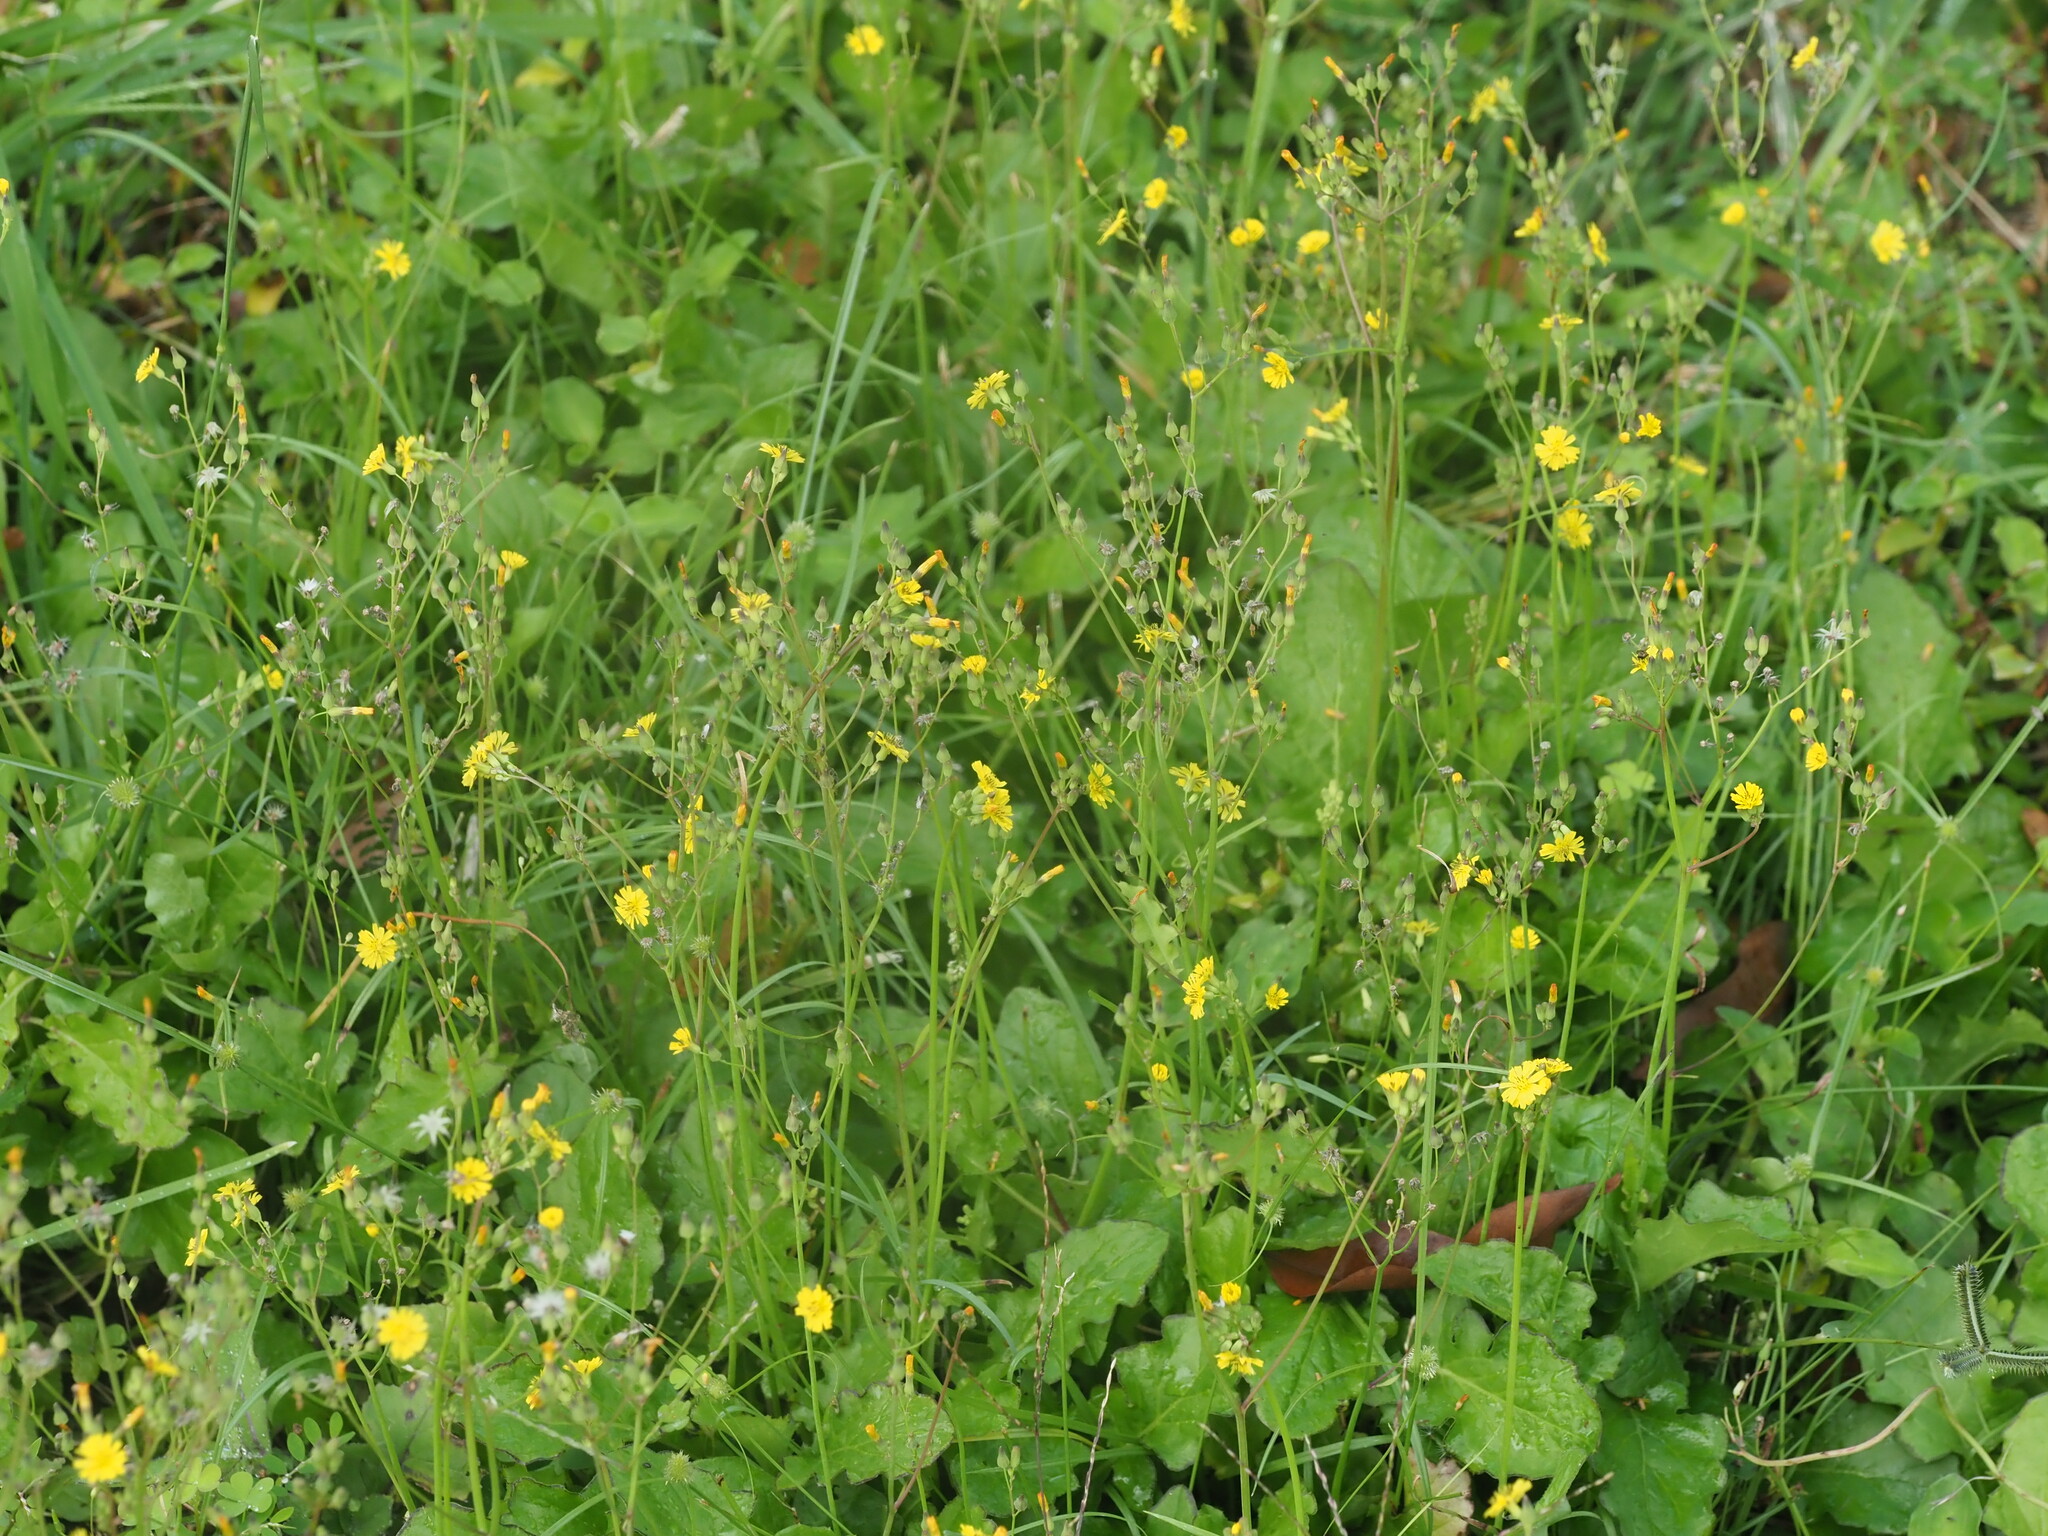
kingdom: Plantae
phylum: Tracheophyta
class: Magnoliopsida
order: Asterales
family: Asteraceae
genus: Youngia
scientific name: Youngia japonica
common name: Oriental false hawksbeard
